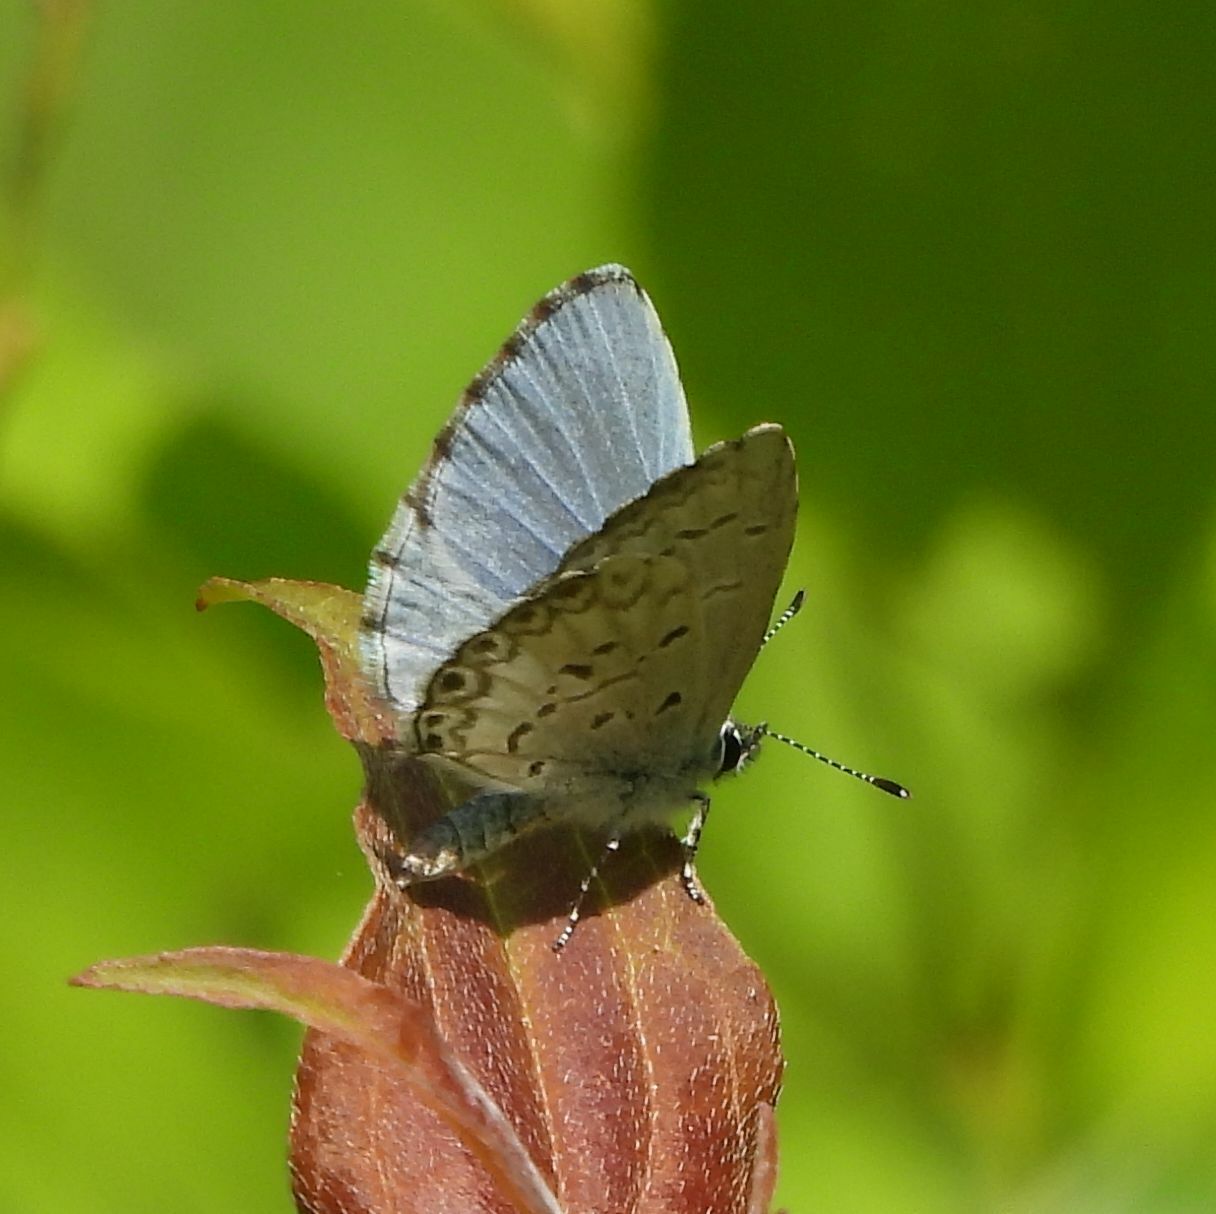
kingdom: Animalia
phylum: Arthropoda
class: Insecta
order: Lepidoptera
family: Lycaenidae
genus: Celastrina
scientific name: Celastrina lucia
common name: Lucia azure
